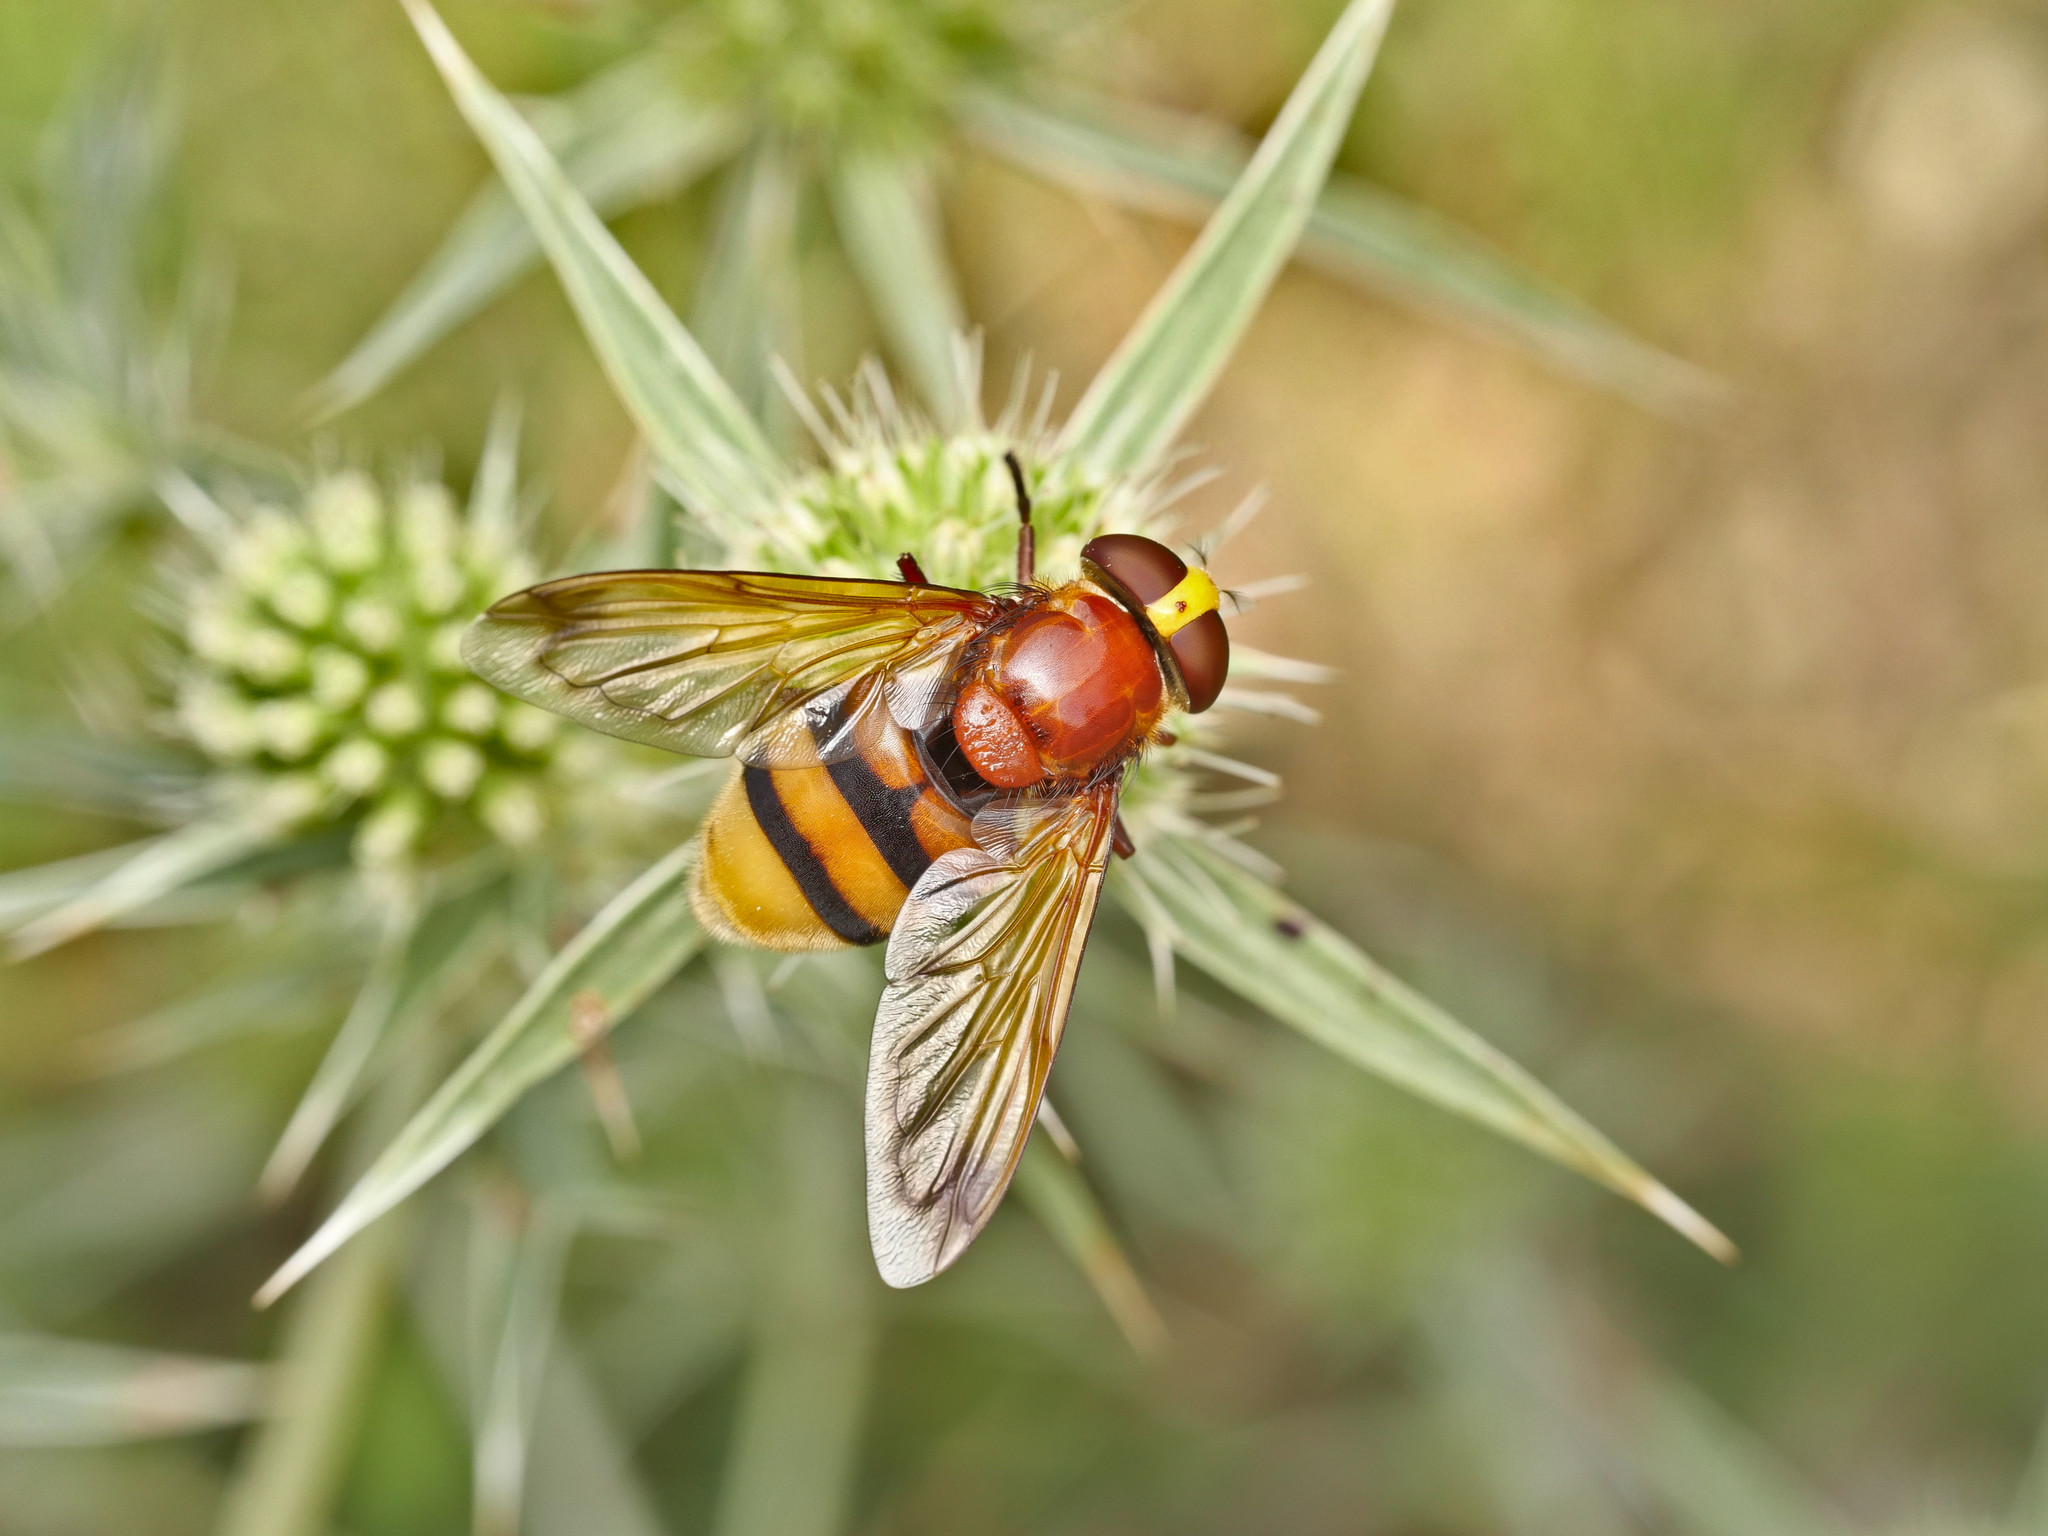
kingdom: Animalia
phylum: Arthropoda
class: Insecta
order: Diptera
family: Syrphidae
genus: Volucella
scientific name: Volucella zonaria
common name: Hornet hoverfly
